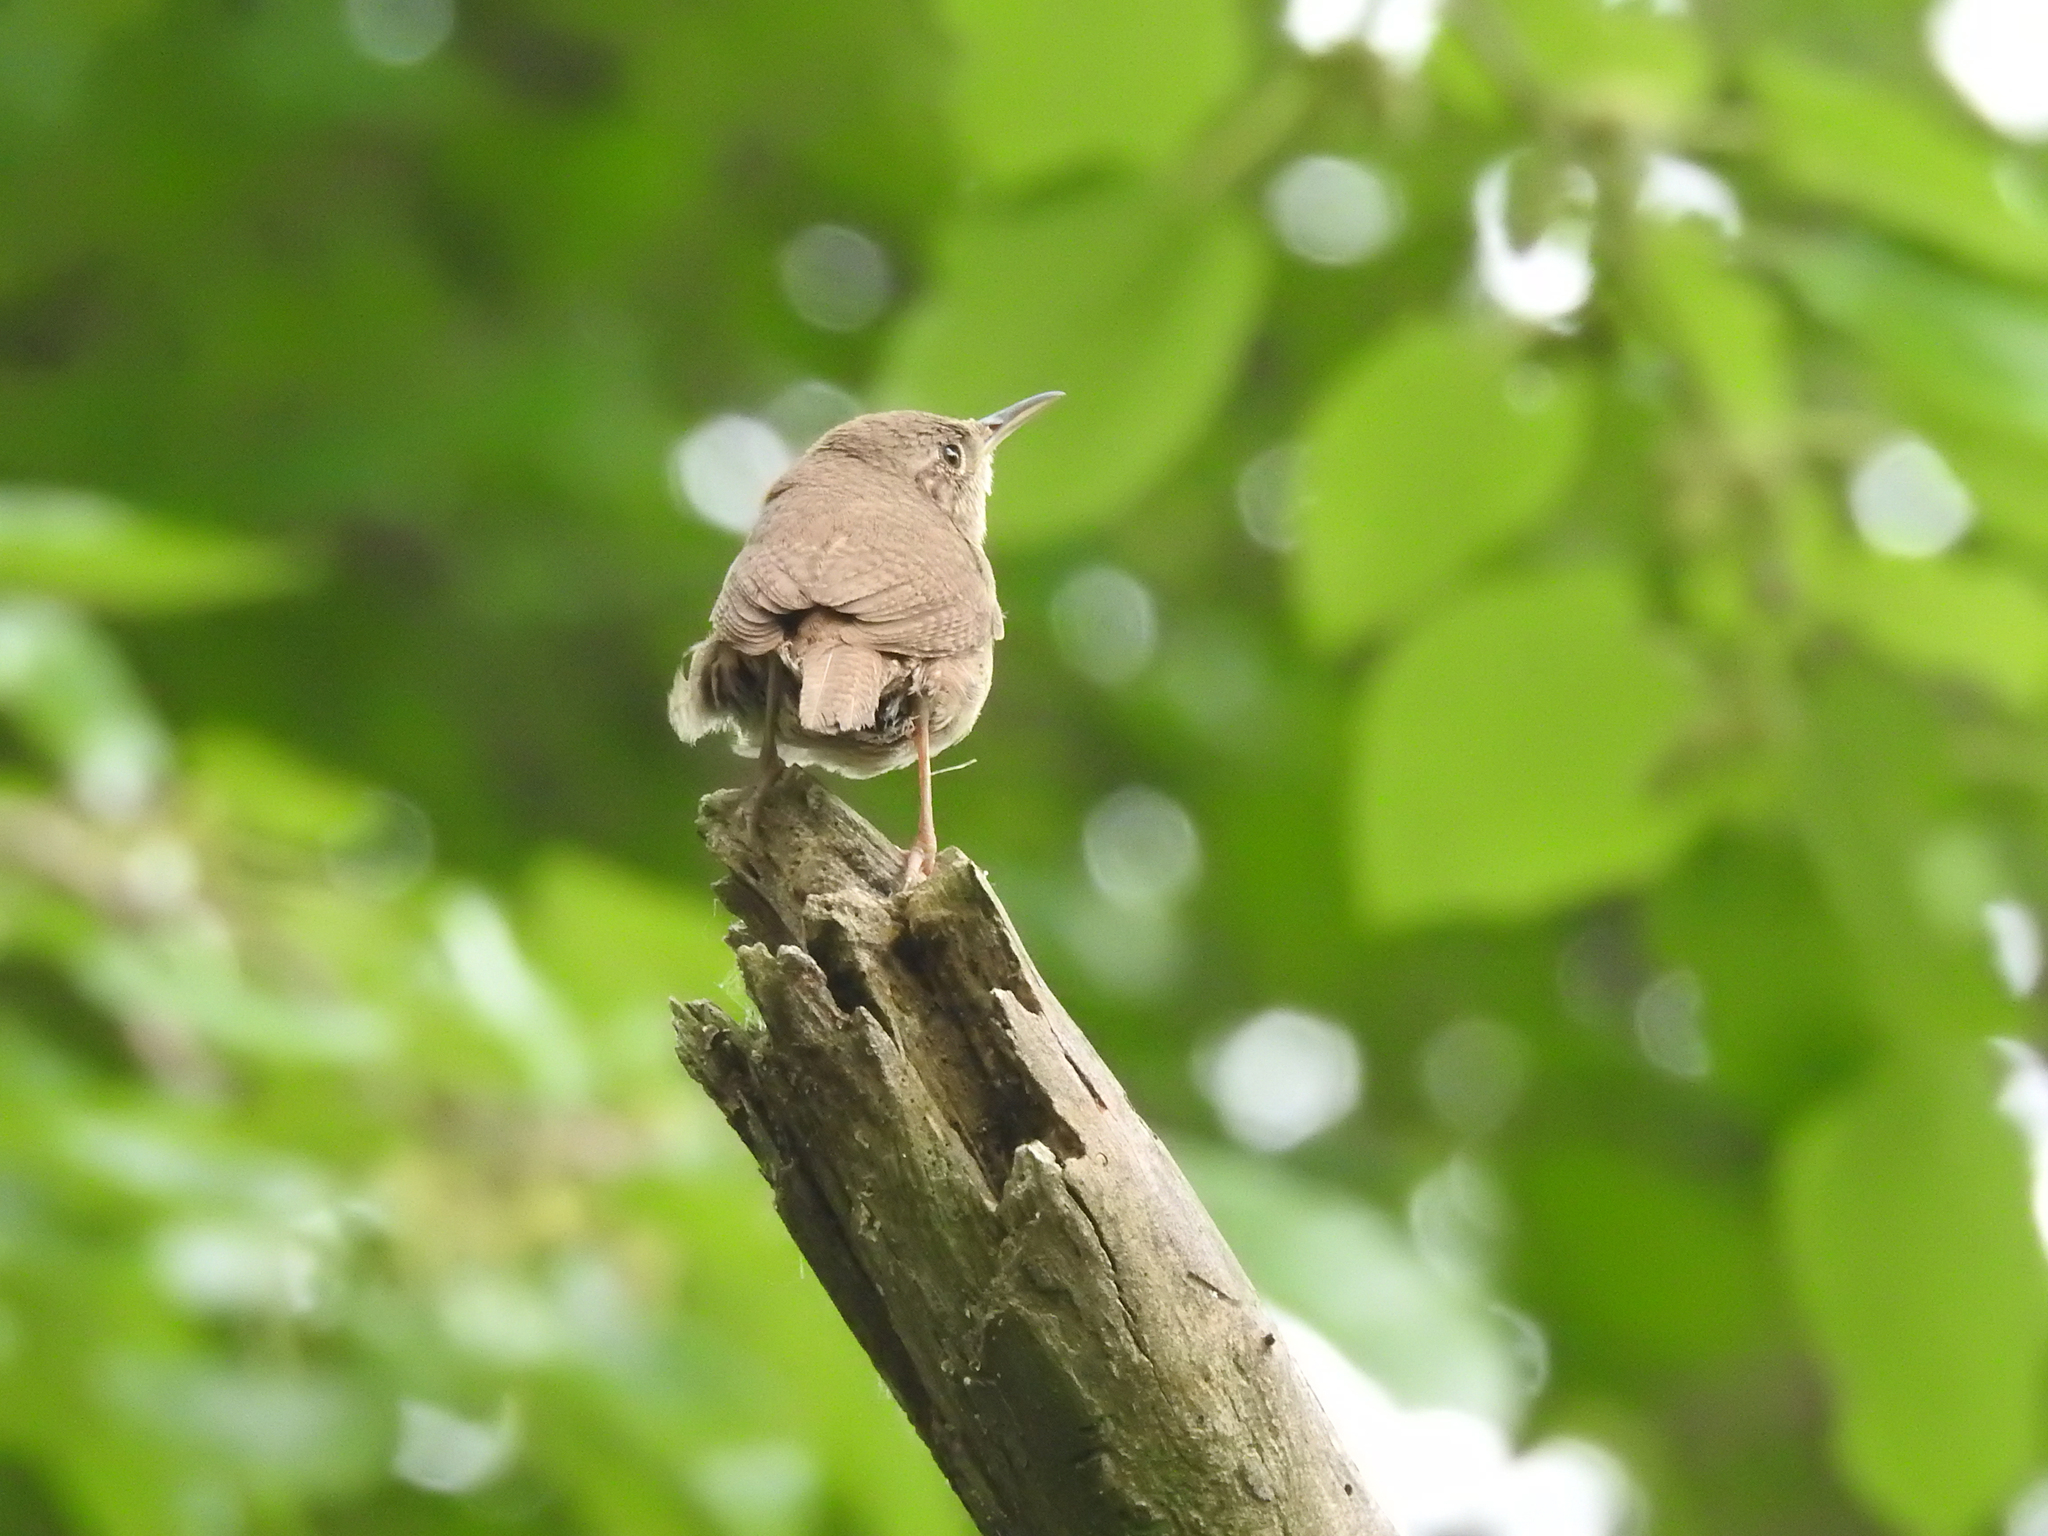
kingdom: Animalia
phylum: Chordata
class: Aves
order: Passeriformes
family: Troglodytidae
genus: Troglodytes
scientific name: Troglodytes aedon
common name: House wren
